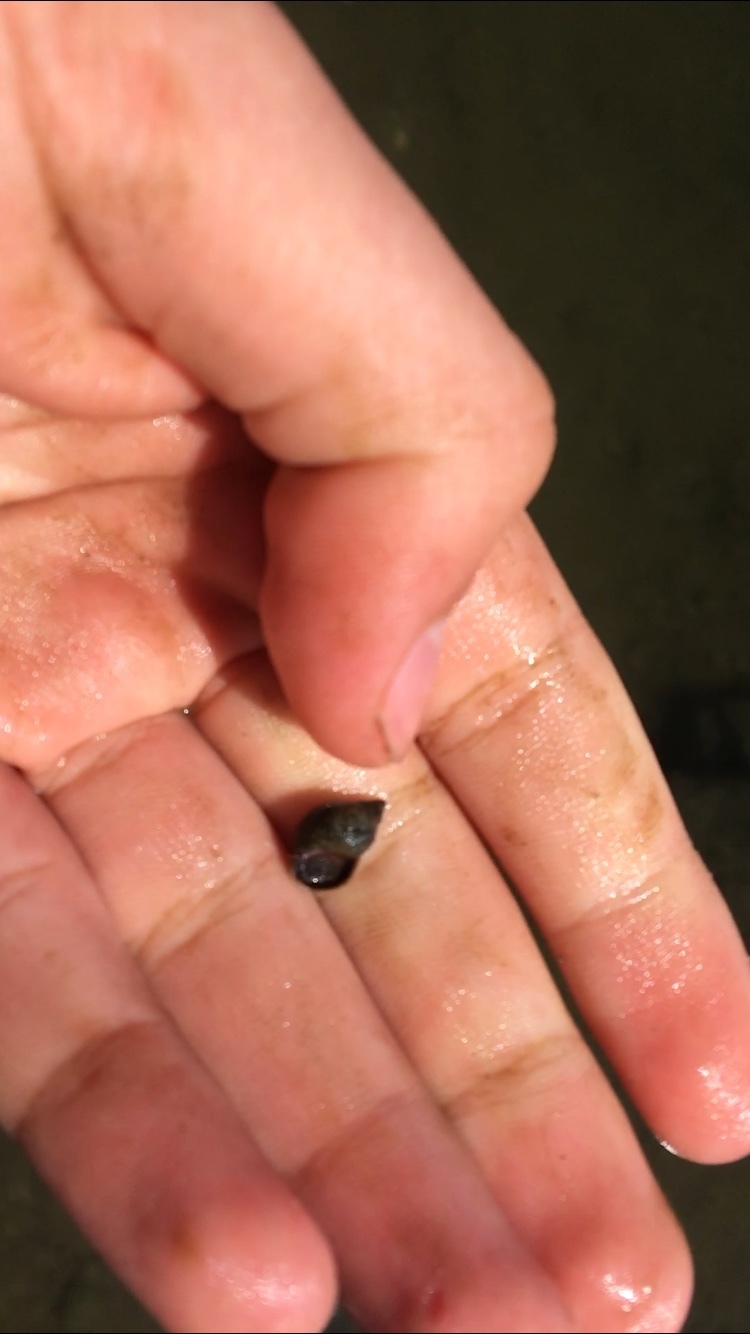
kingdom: Animalia
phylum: Mollusca
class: Gastropoda
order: Littorinimorpha
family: Littorinidae
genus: Littorina
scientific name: Littorina scutulata
